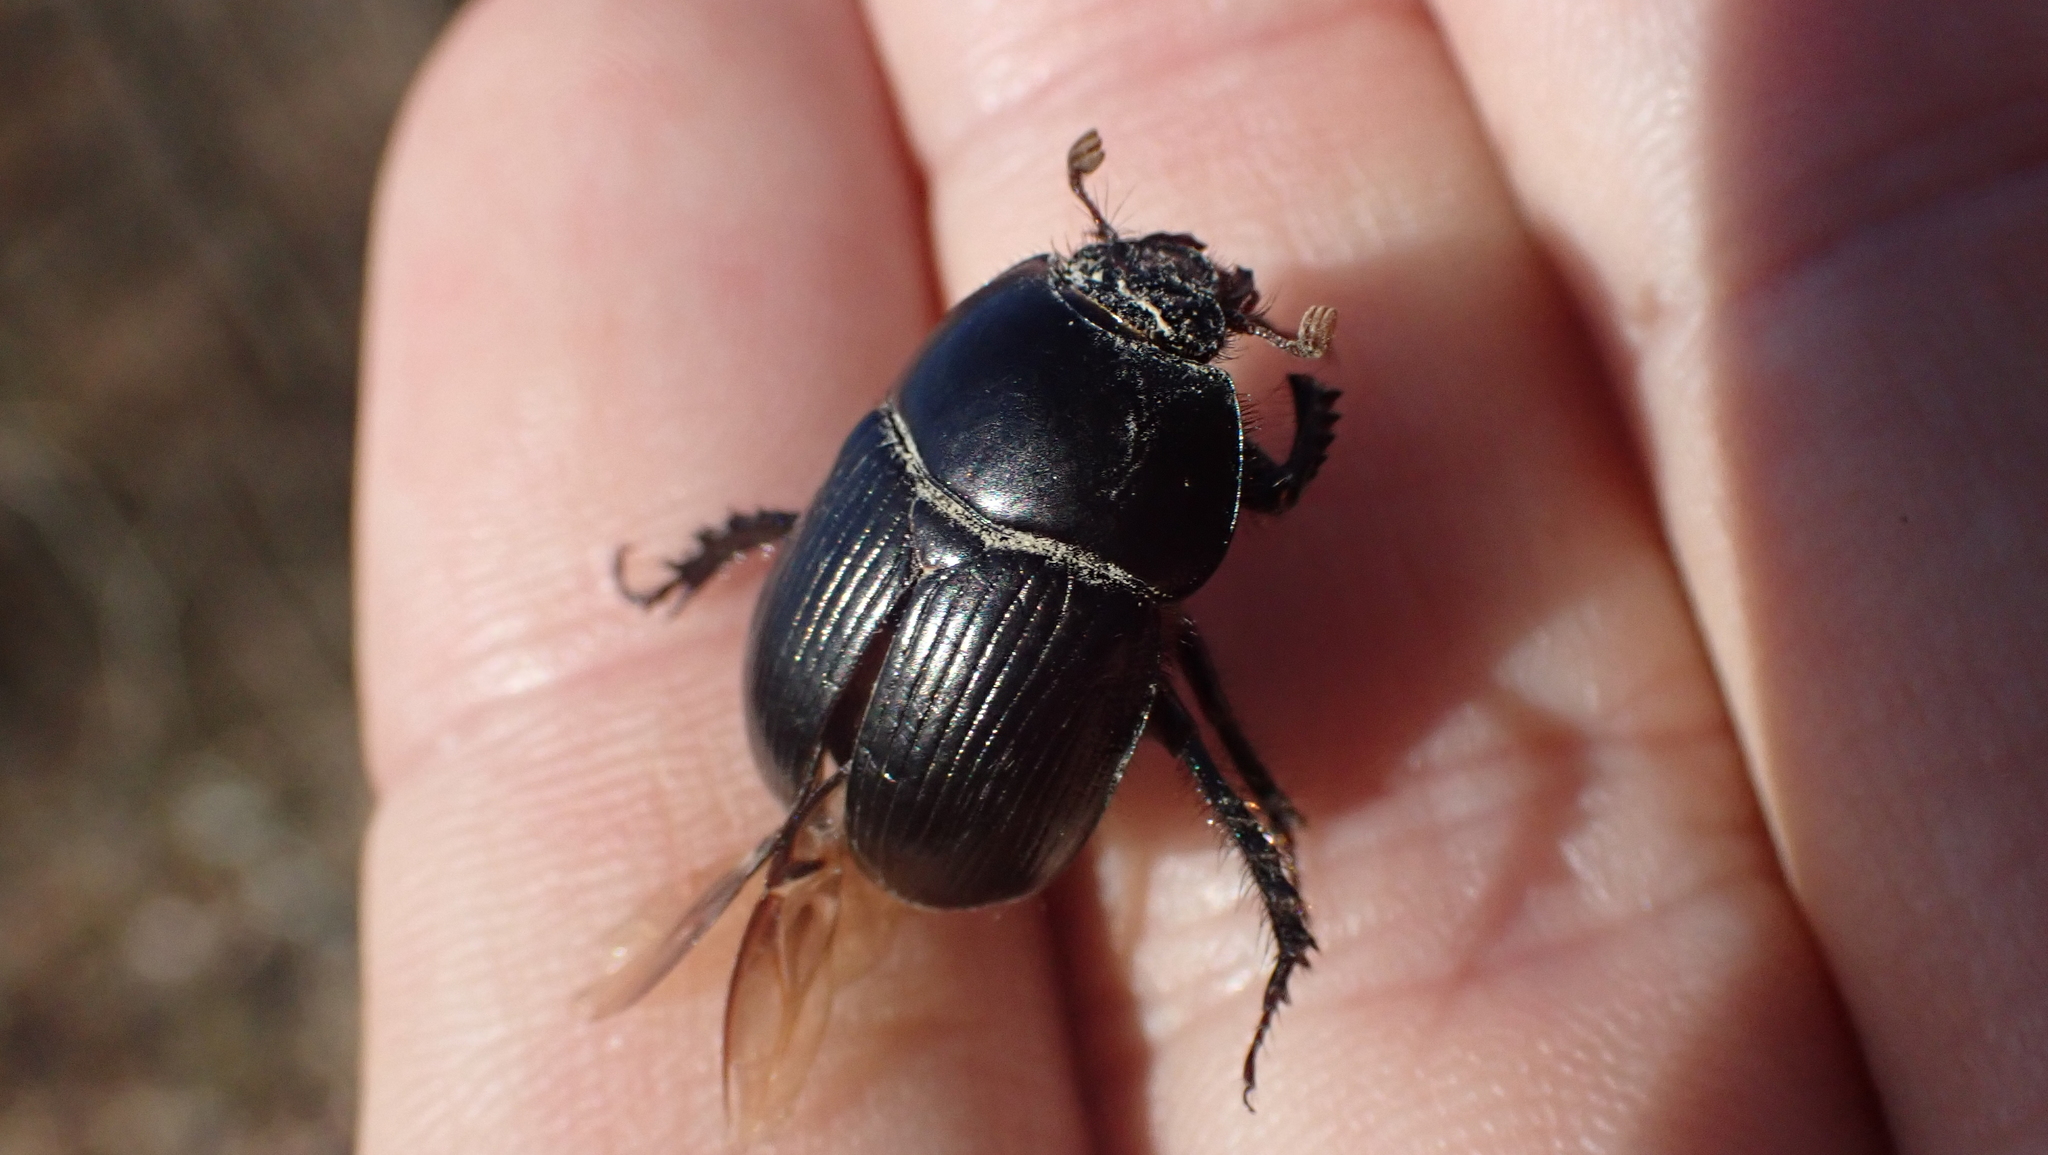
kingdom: Animalia
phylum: Arthropoda
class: Insecta
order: Coleoptera
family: Geotrupidae
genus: Cnemotrupes
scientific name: Cnemotrupes semiopacus
